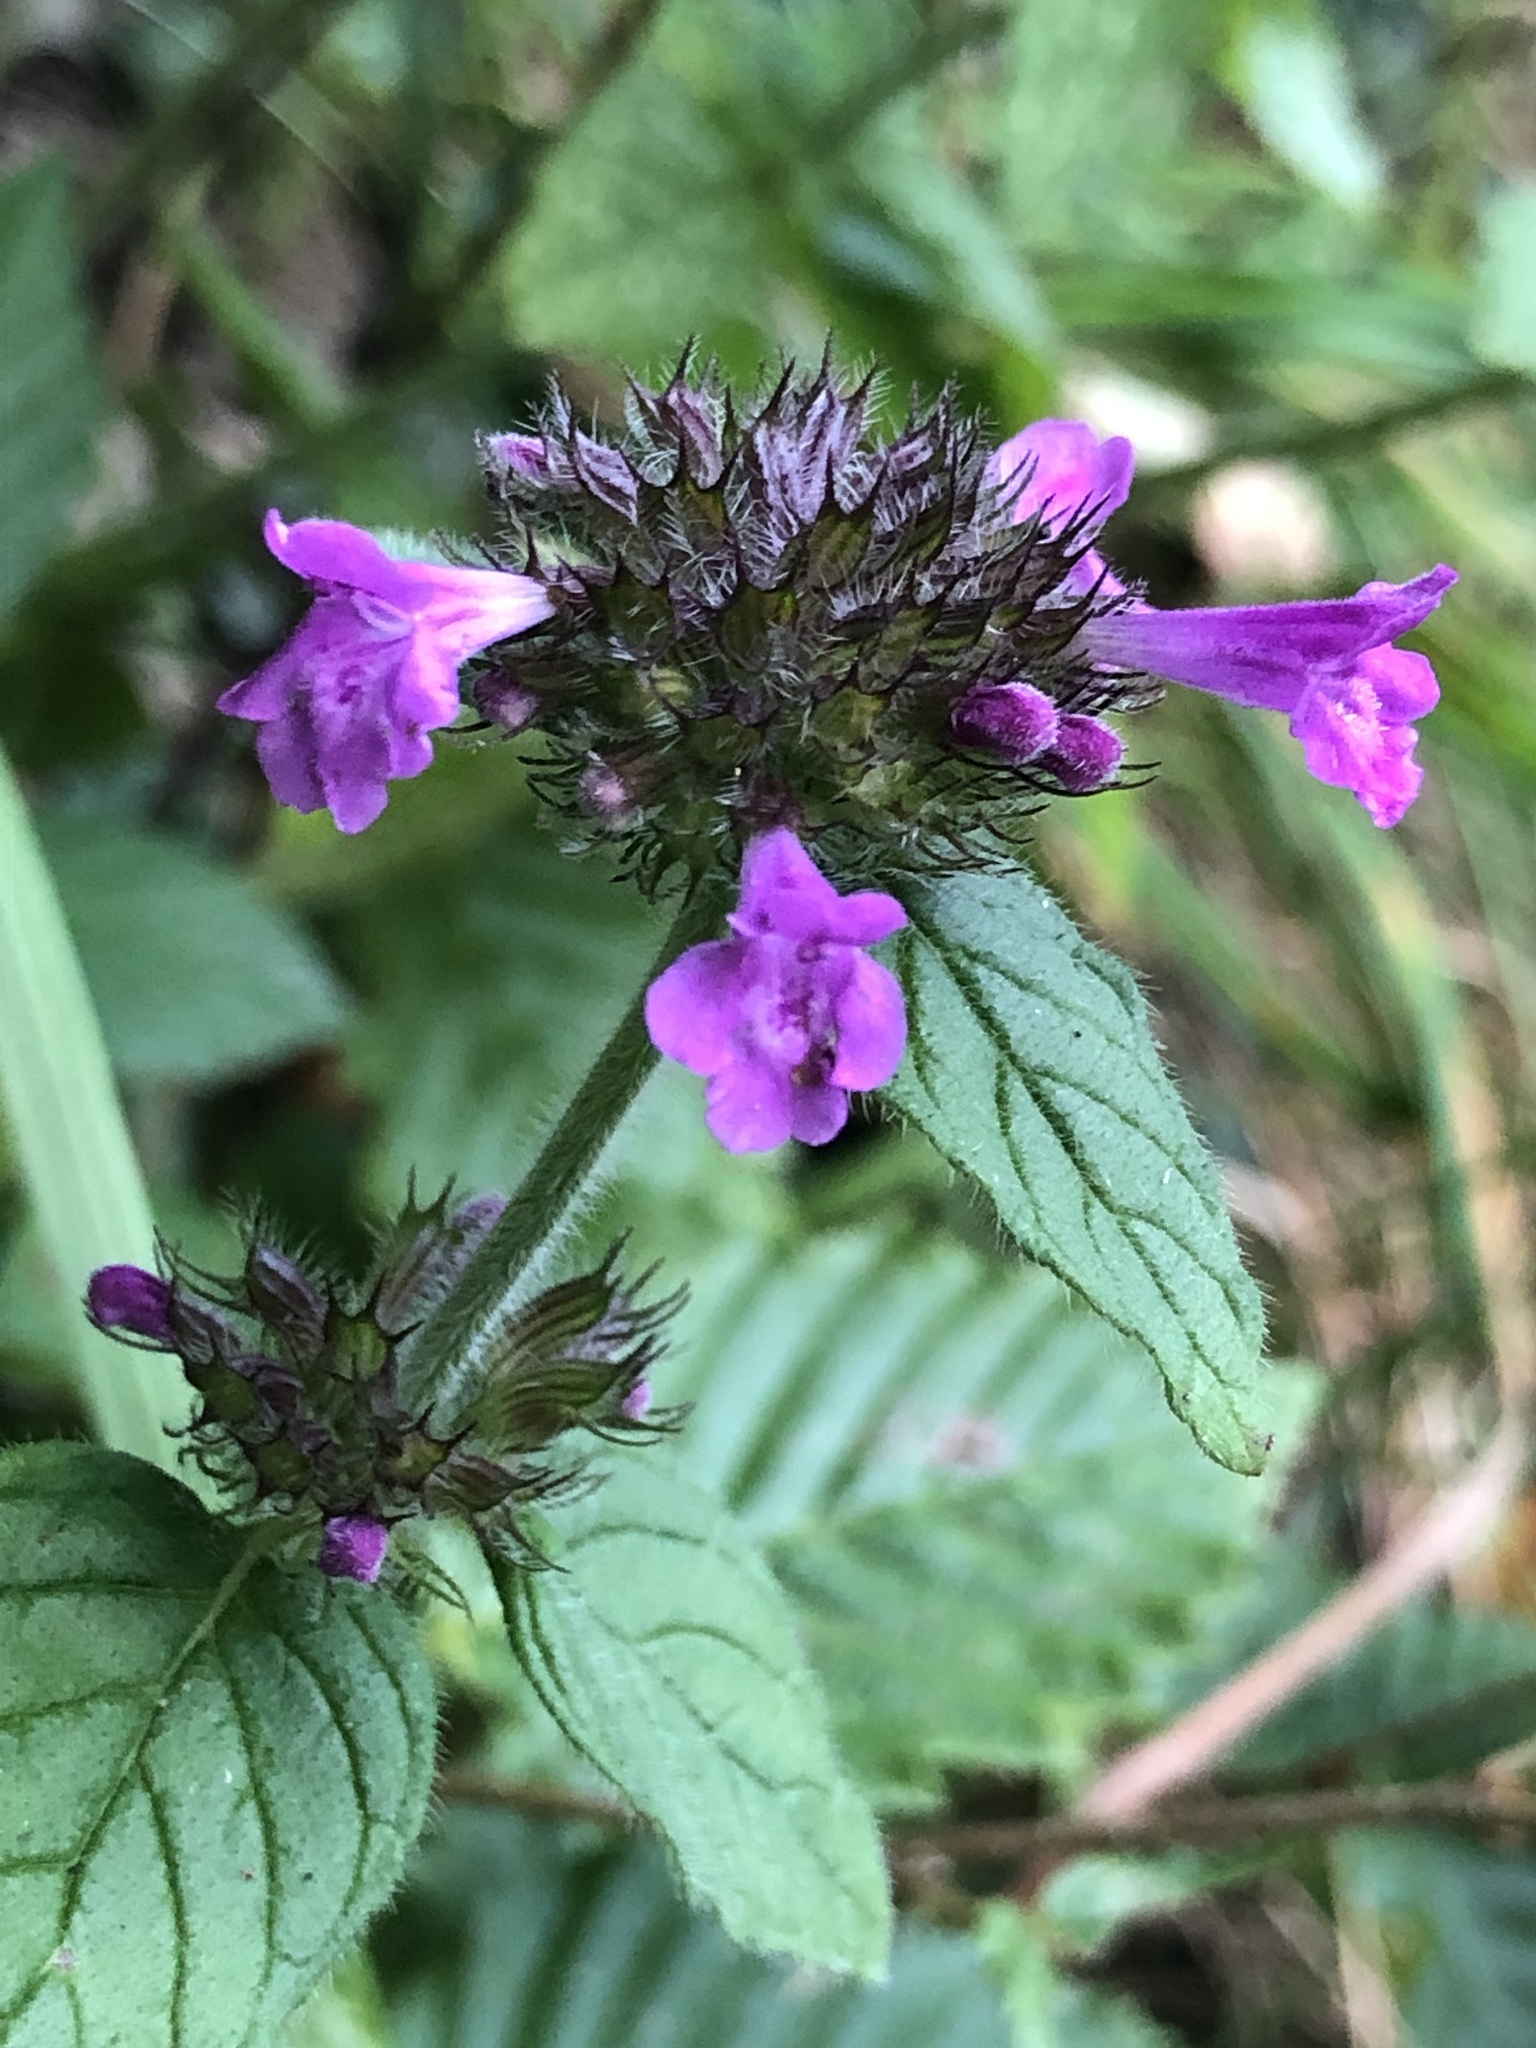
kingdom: Plantae
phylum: Tracheophyta
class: Magnoliopsida
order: Lamiales
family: Lamiaceae
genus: Clinopodium
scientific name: Clinopodium vulgare
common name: Wild basil
